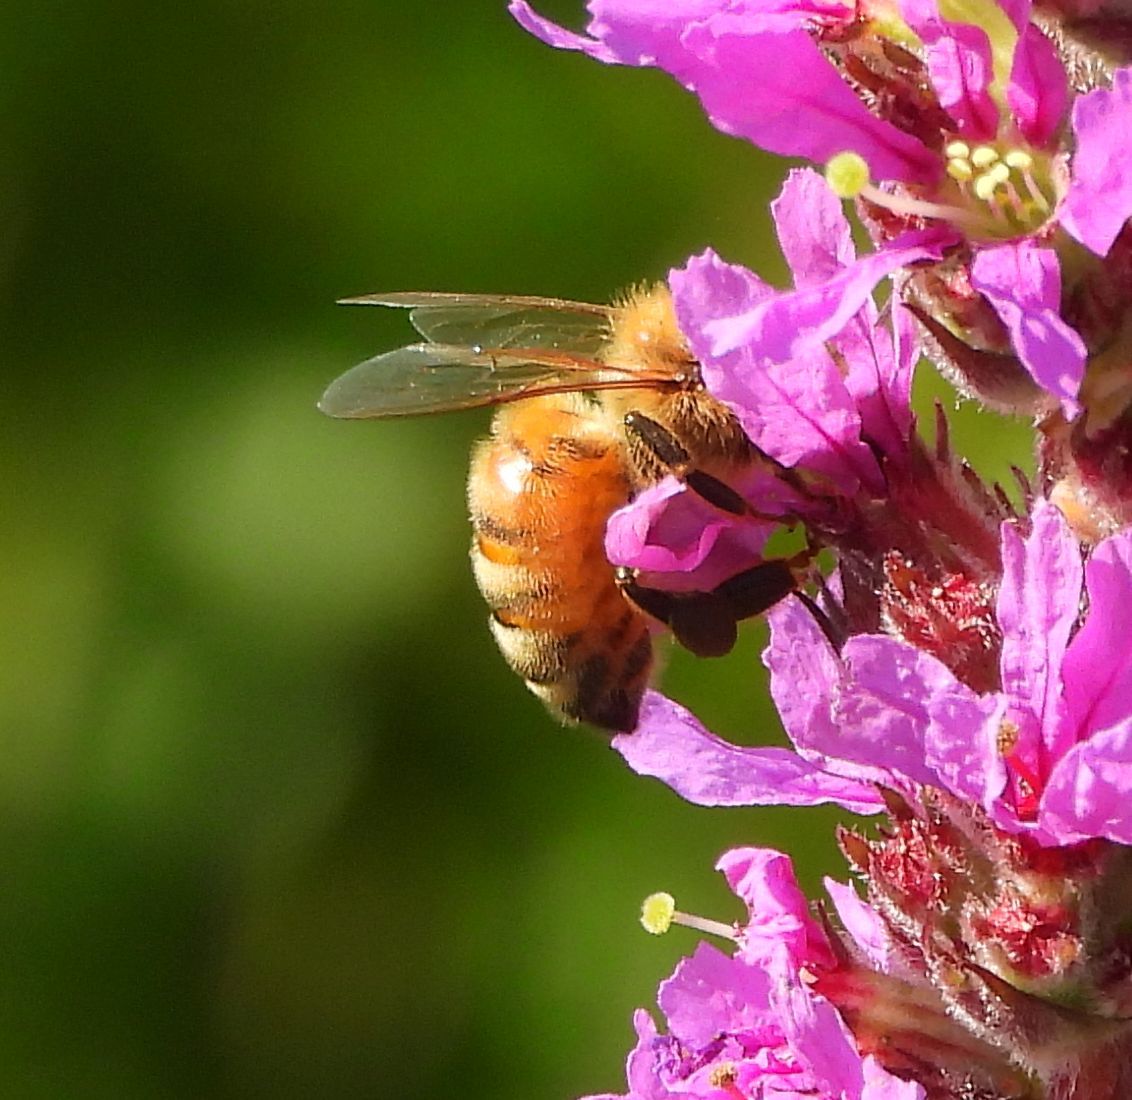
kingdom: Animalia
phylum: Arthropoda
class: Insecta
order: Hymenoptera
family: Apidae
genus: Apis
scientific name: Apis mellifera
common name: Honey bee
